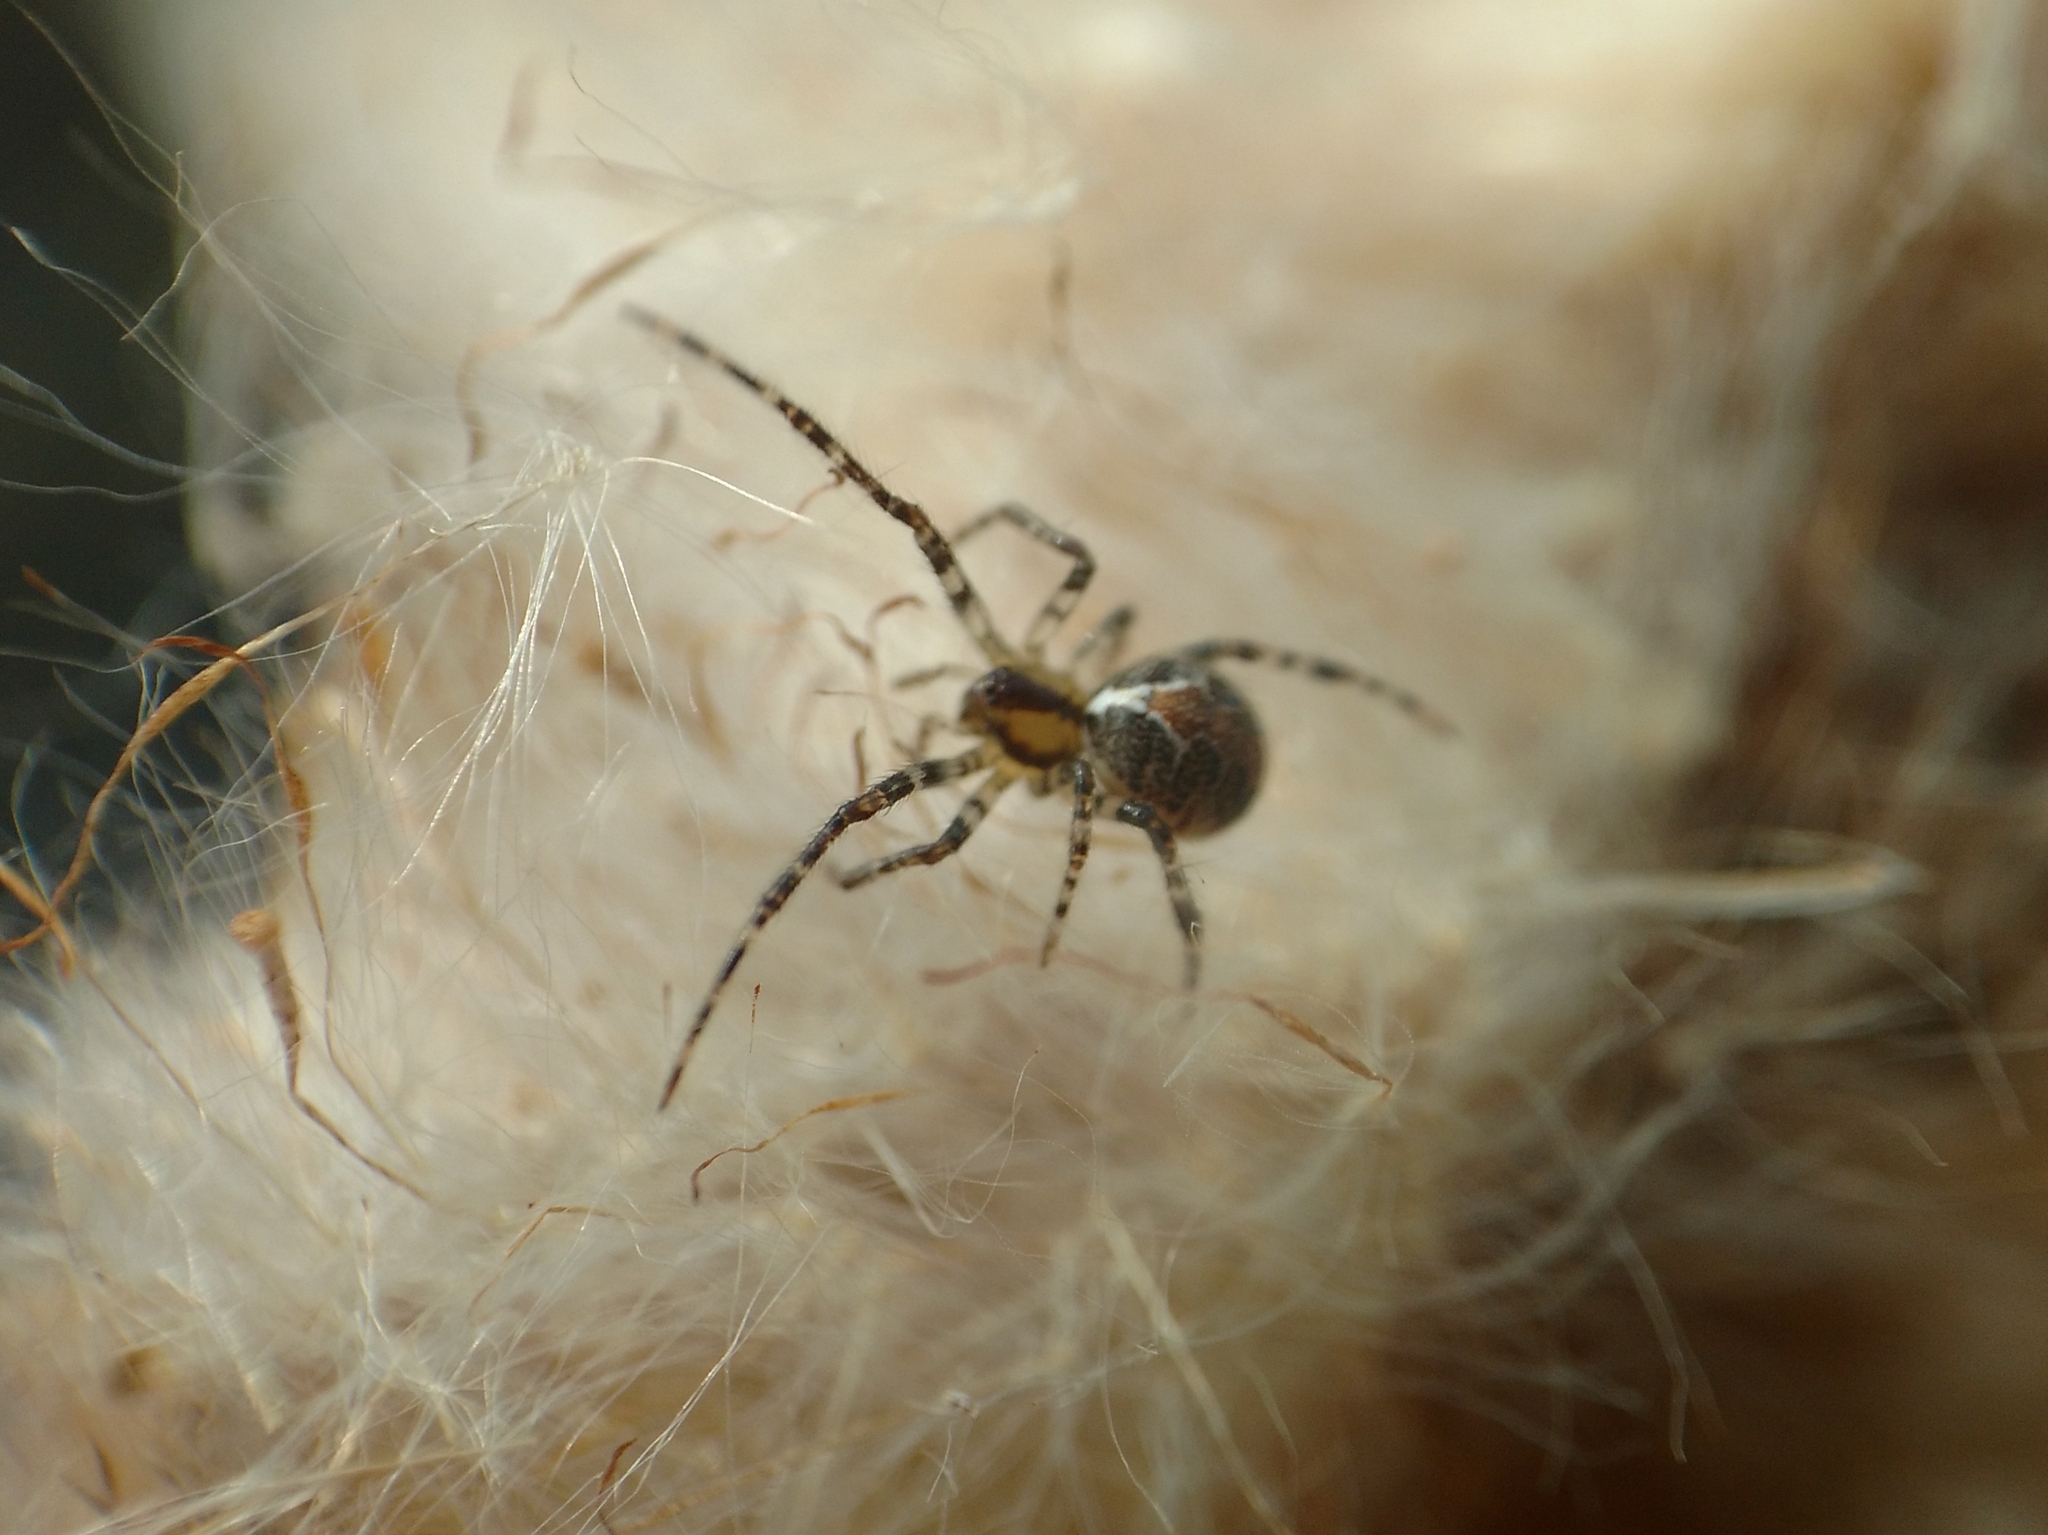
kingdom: Animalia
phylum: Arthropoda
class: Arachnida
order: Araneae
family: Theridiidae
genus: Theridion
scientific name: Theridion pictum
